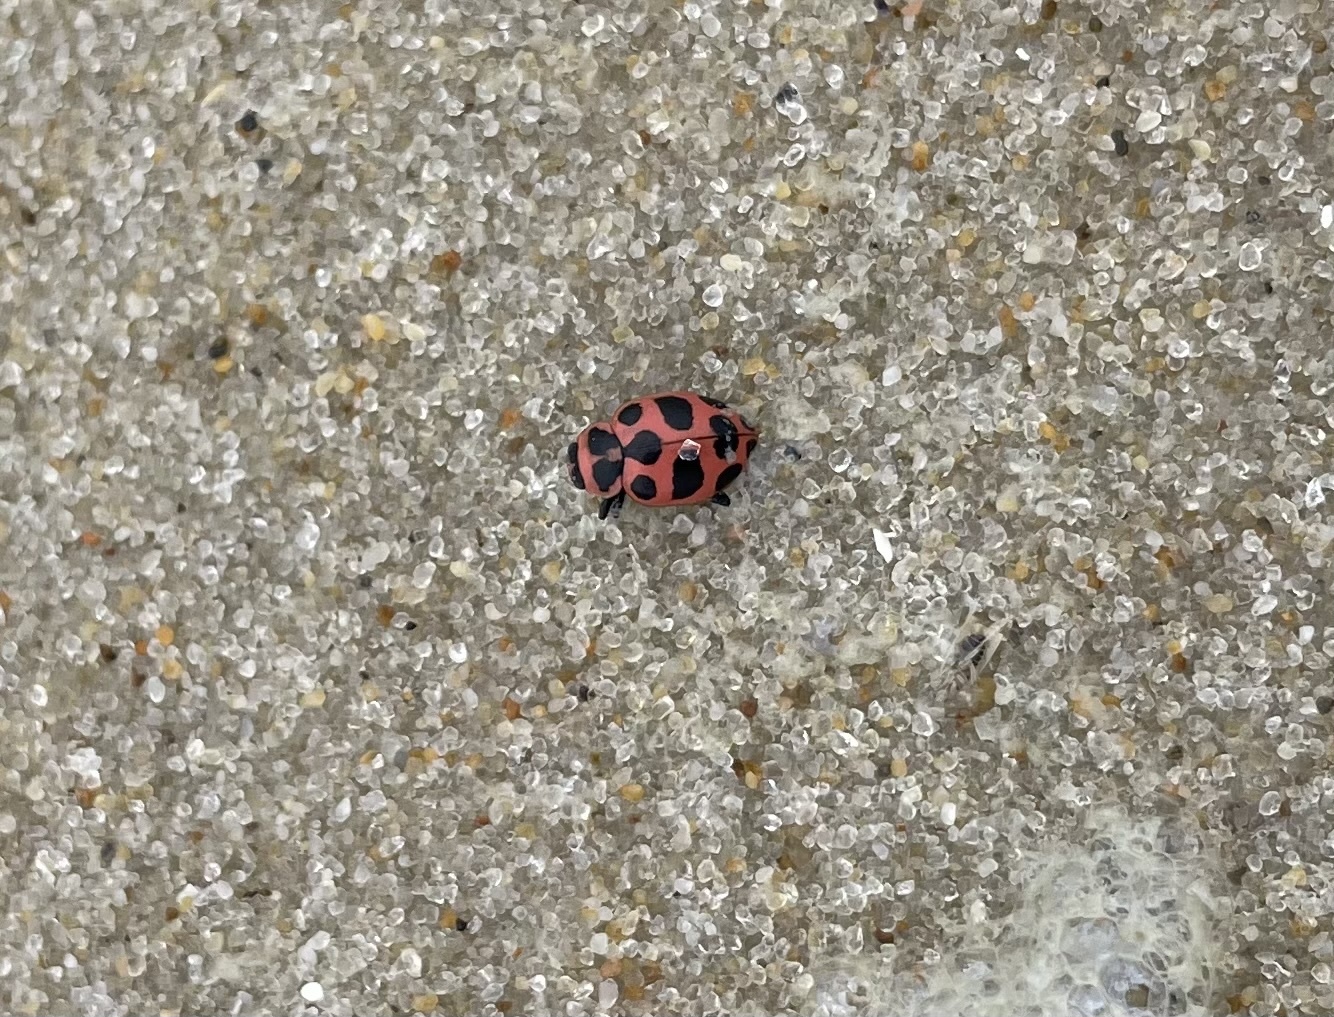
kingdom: Animalia
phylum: Arthropoda
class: Insecta
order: Coleoptera
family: Coccinellidae
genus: Coleomegilla
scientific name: Coleomegilla maculata
